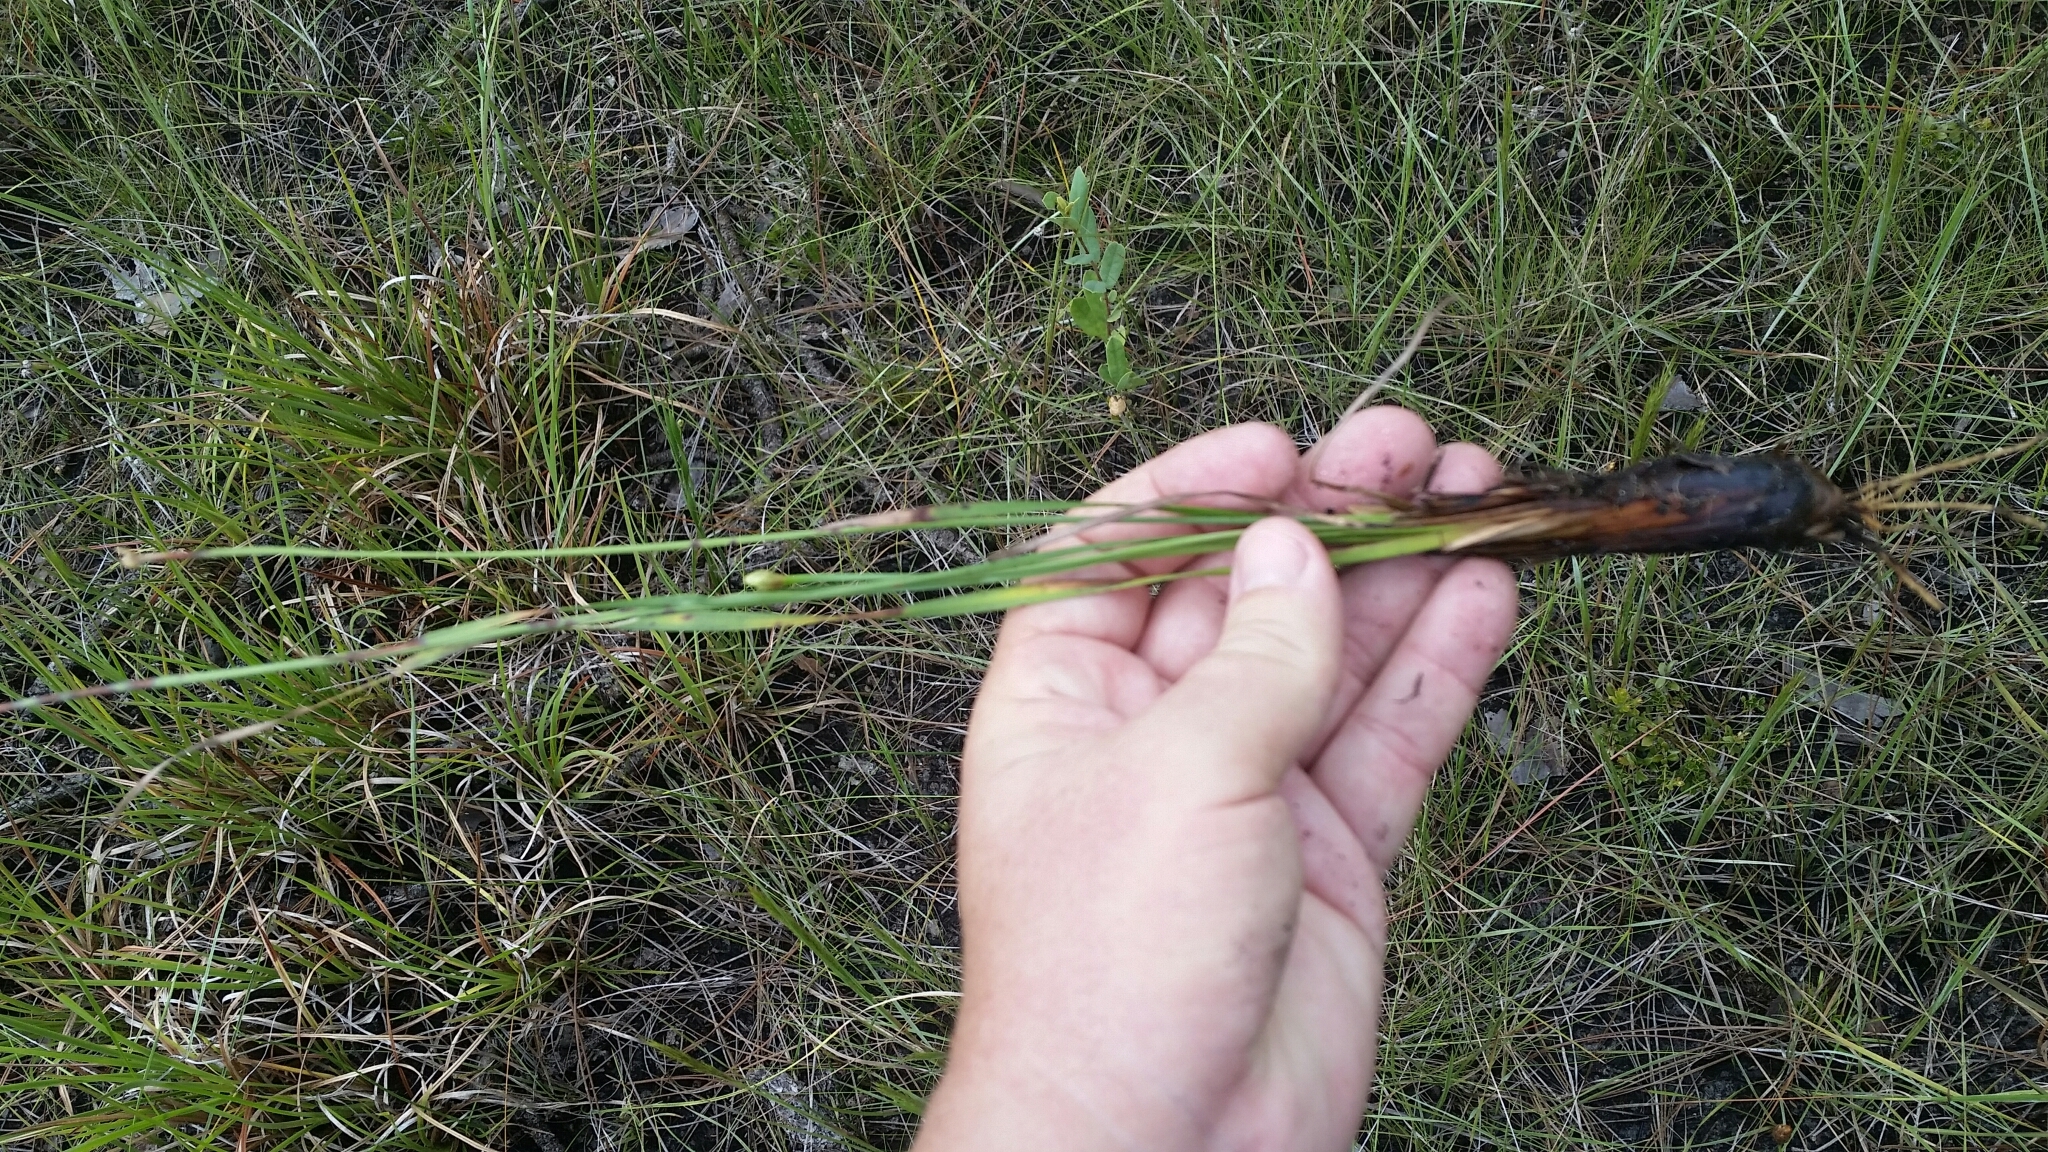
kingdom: Plantae
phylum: Tracheophyta
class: Liliopsida
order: Poales
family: Xyridaceae
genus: Xyris
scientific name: Xyris caroliniana
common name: Carolina yellow-eyed-grass
